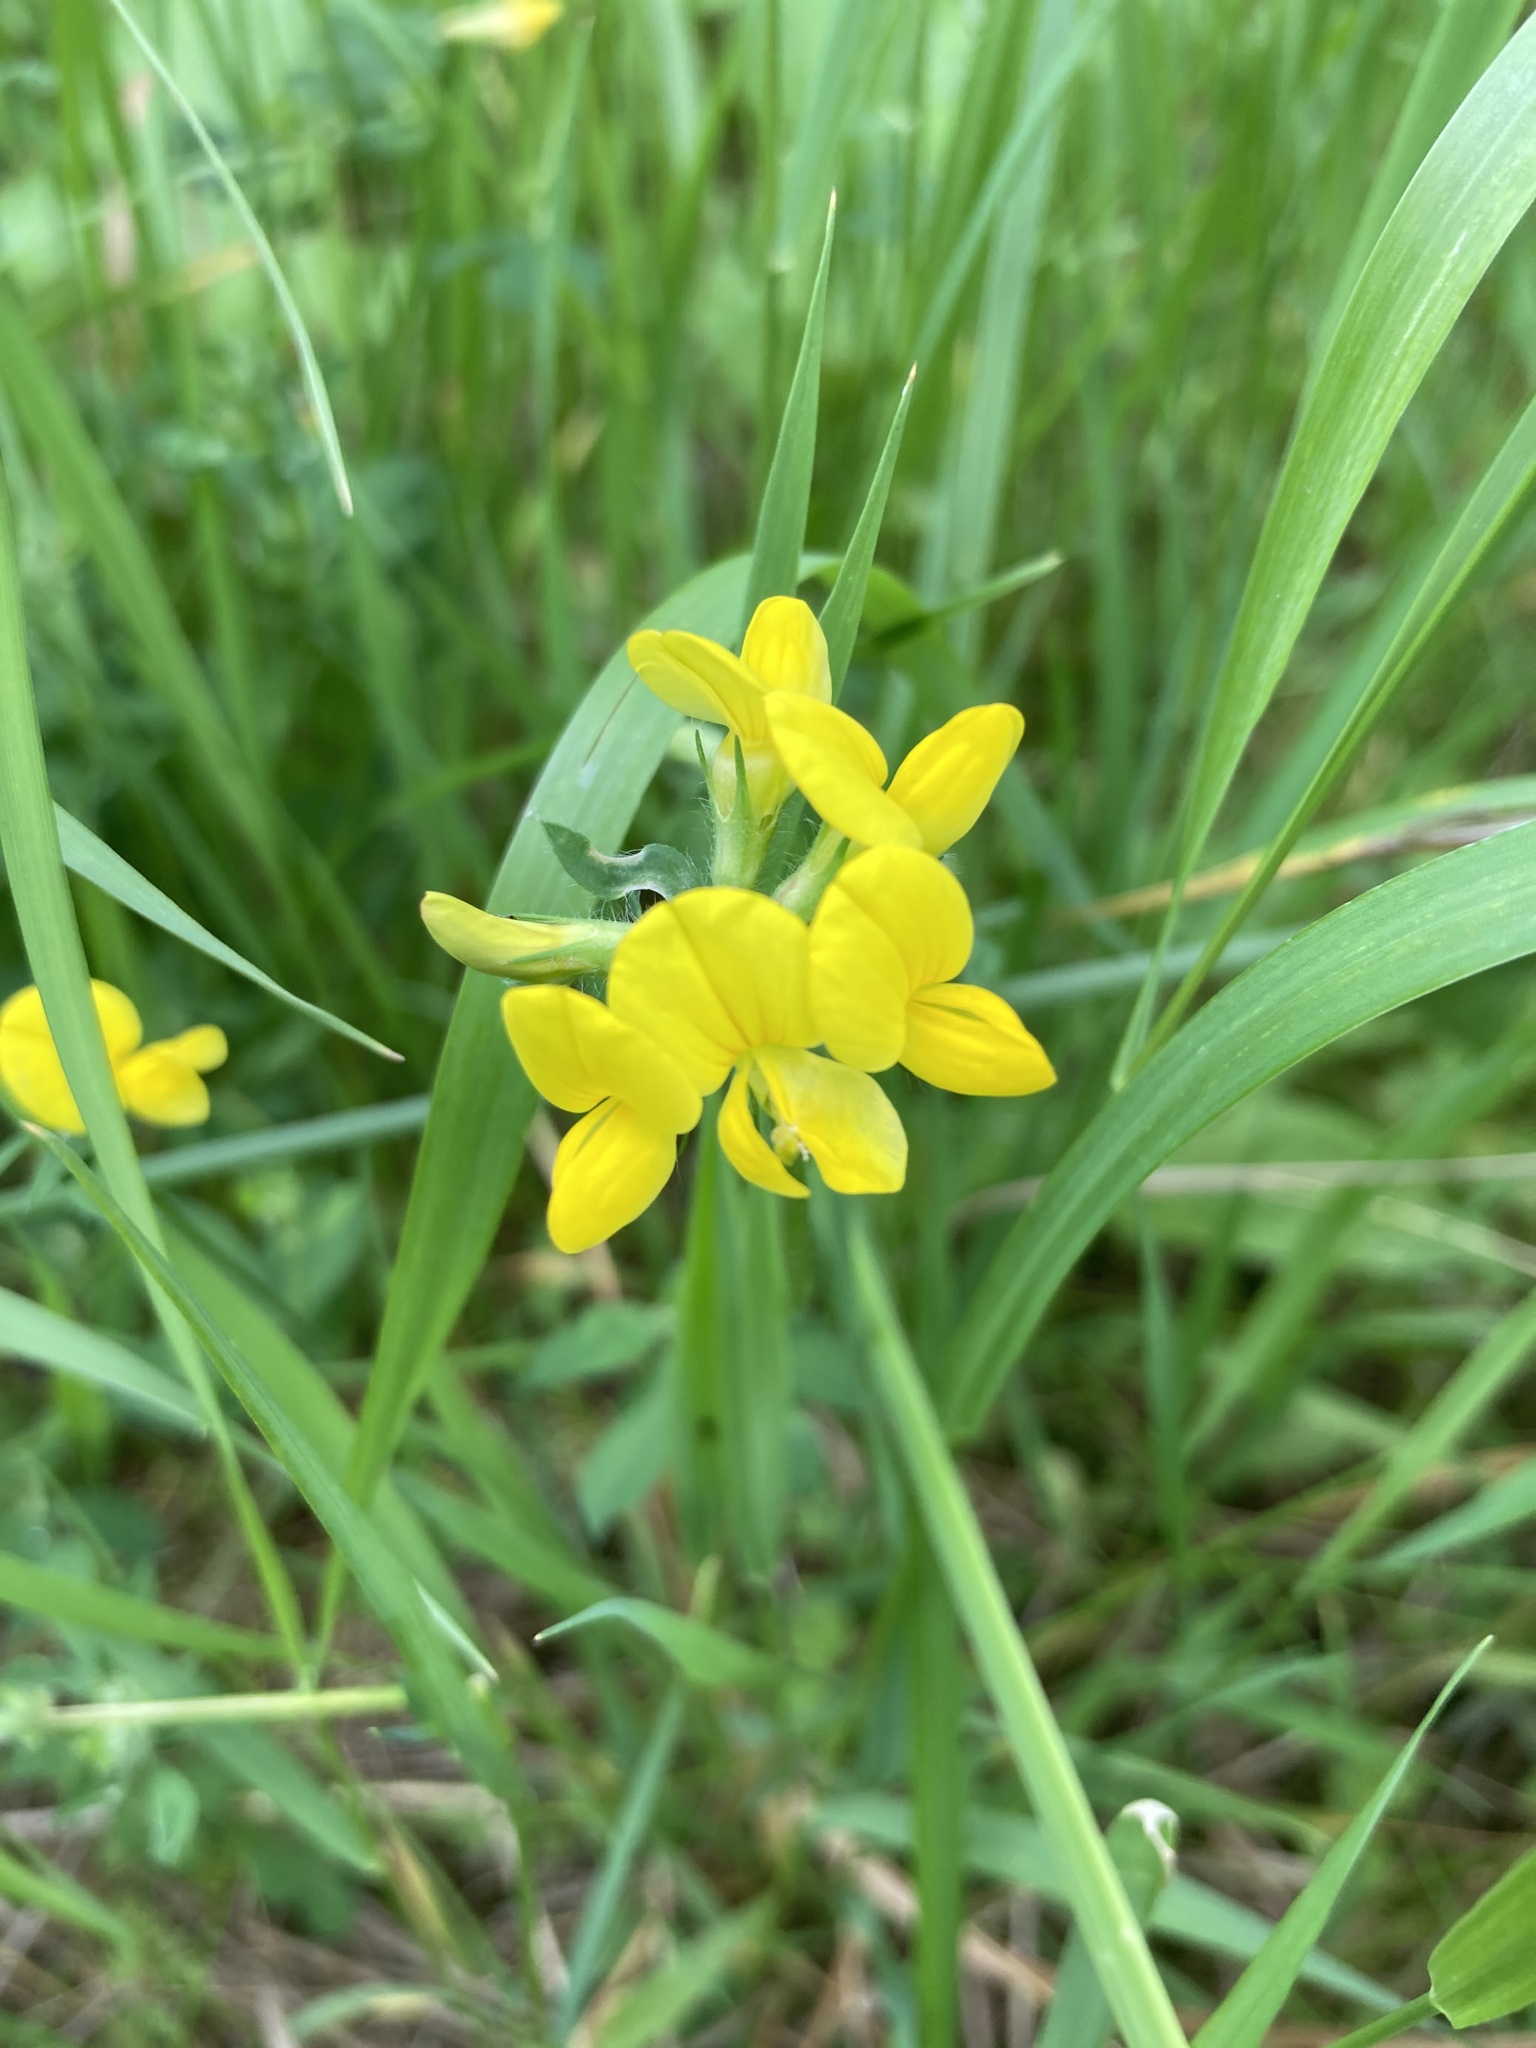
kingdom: Plantae
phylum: Tracheophyta
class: Magnoliopsida
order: Fabales
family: Fabaceae
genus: Lotus
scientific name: Lotus corniculatus
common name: Common bird's-foot-trefoil
